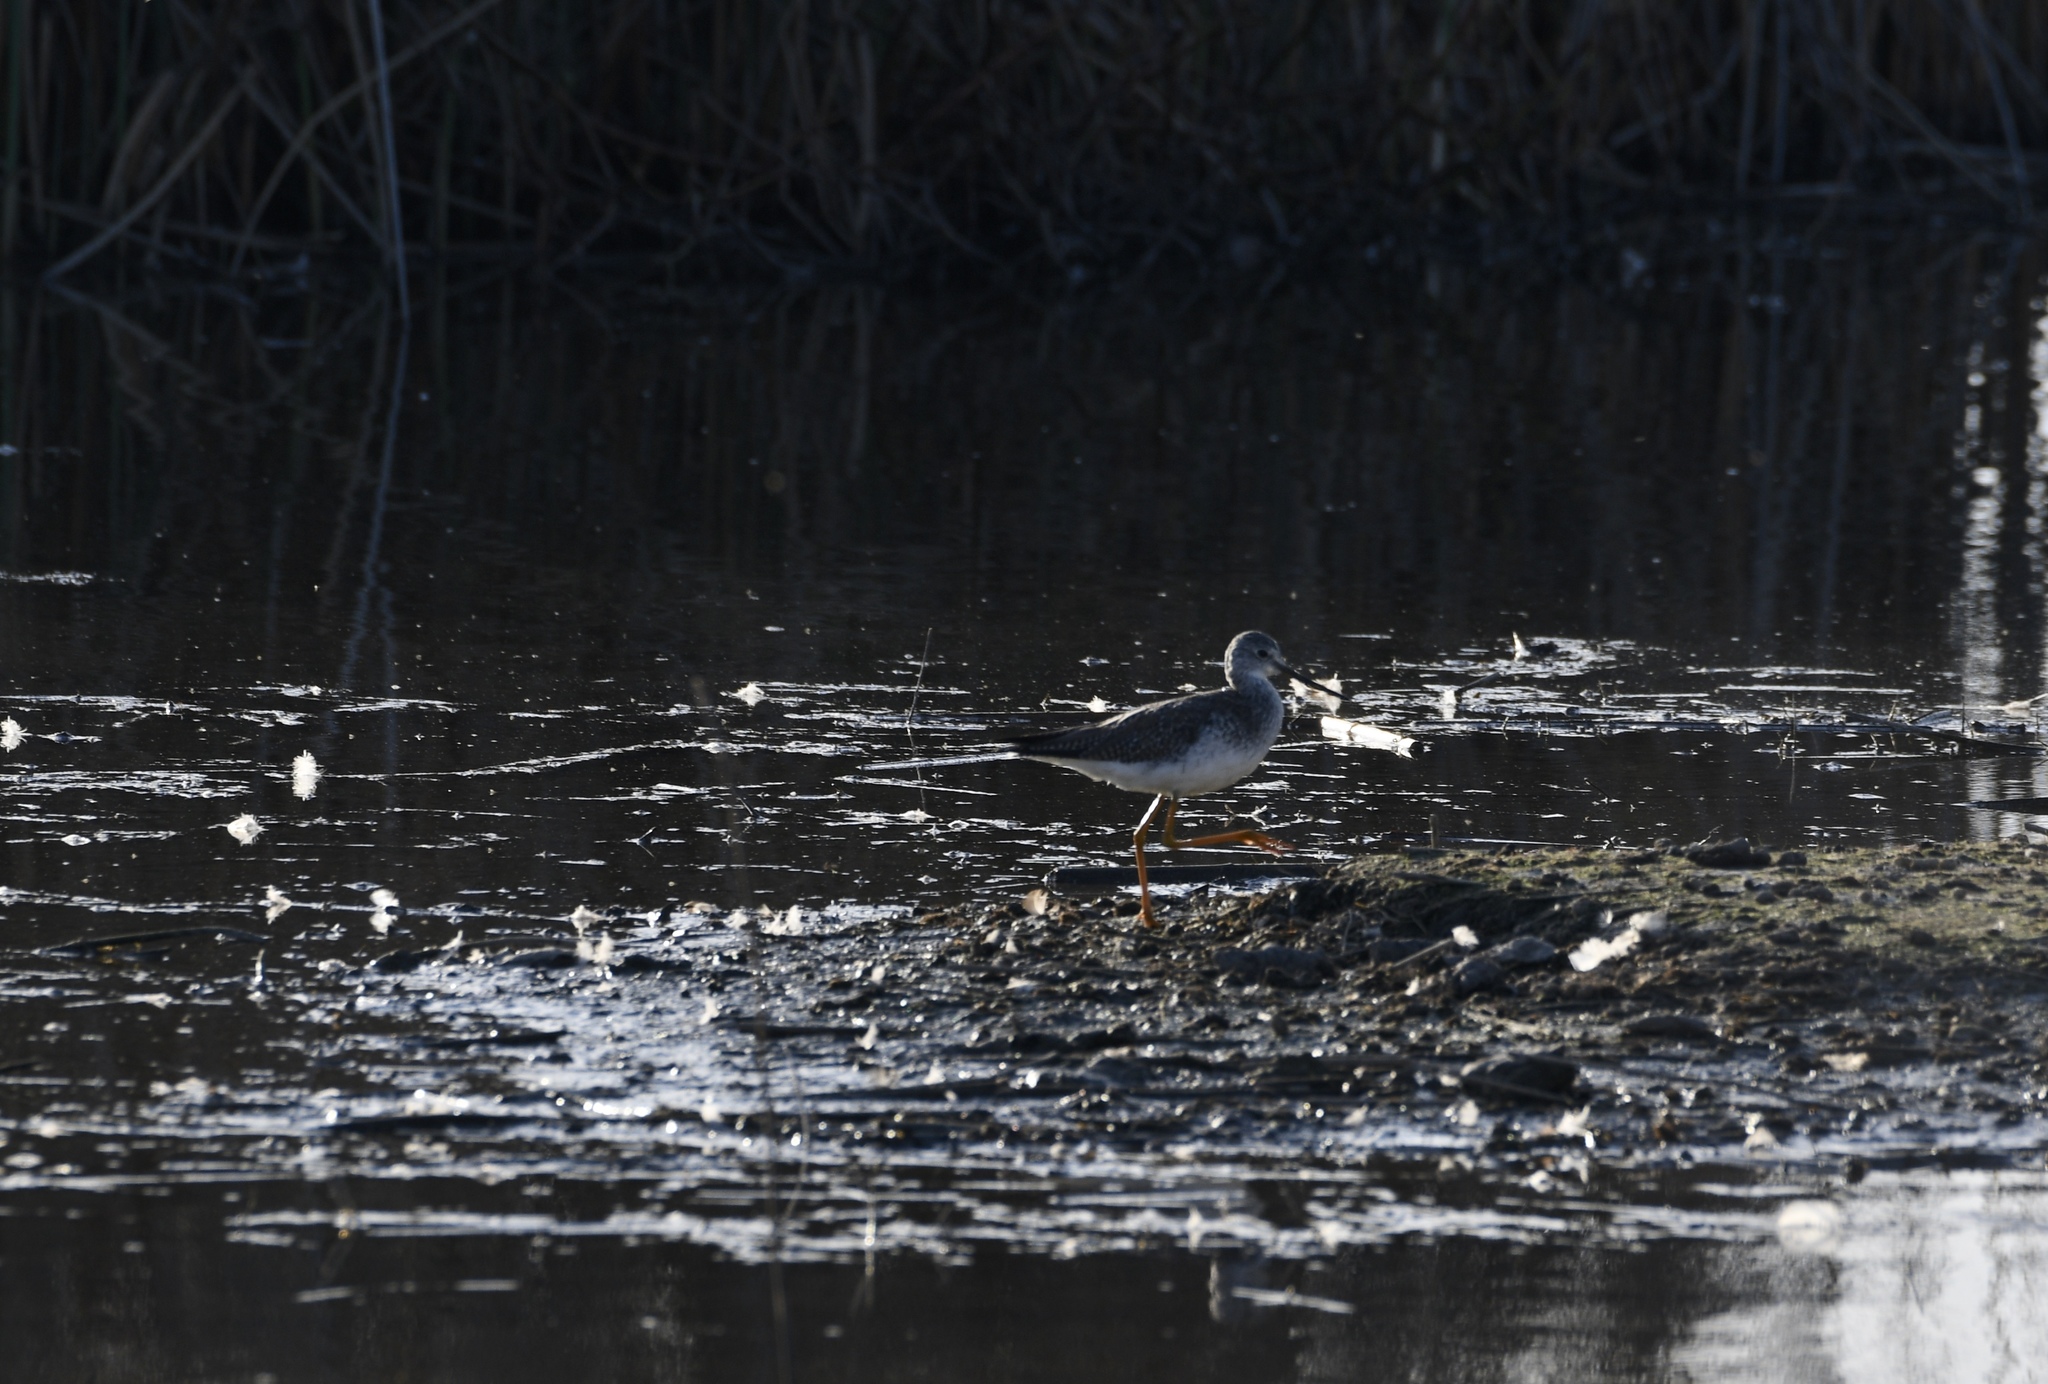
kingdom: Animalia
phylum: Chordata
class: Aves
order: Charadriiformes
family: Scolopacidae
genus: Tringa
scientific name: Tringa melanoleuca
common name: Greater yellowlegs
